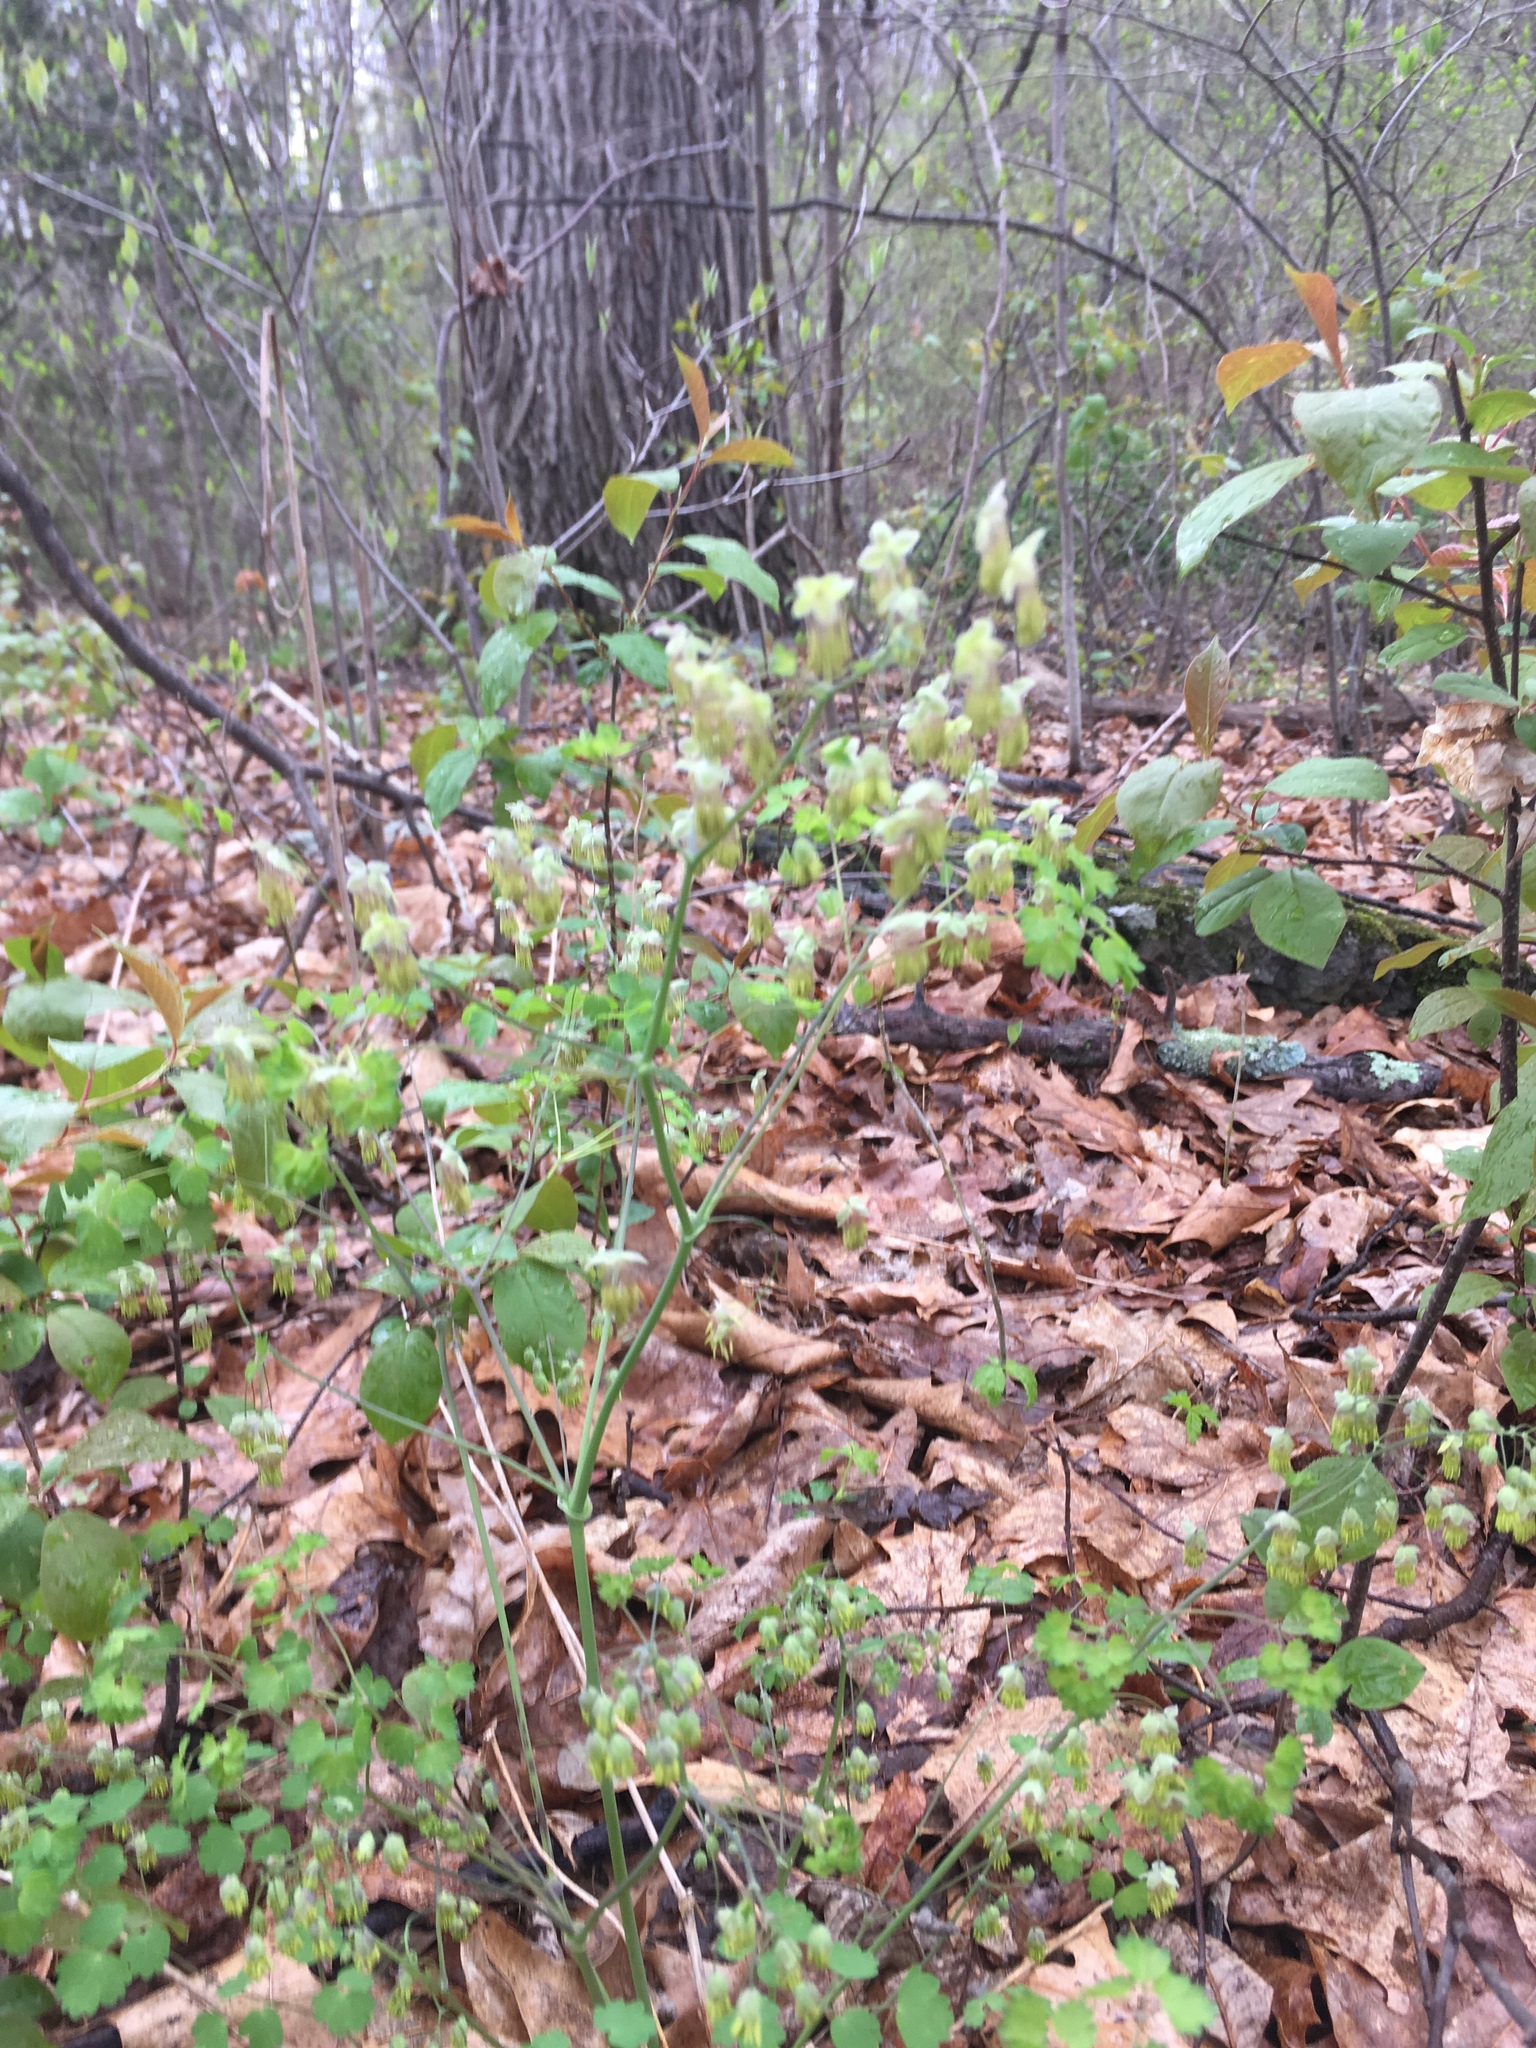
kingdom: Plantae
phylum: Tracheophyta
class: Magnoliopsida
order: Ranunculales
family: Ranunculaceae
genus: Thalictrum
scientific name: Thalictrum dioicum
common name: Early meadow-rue
